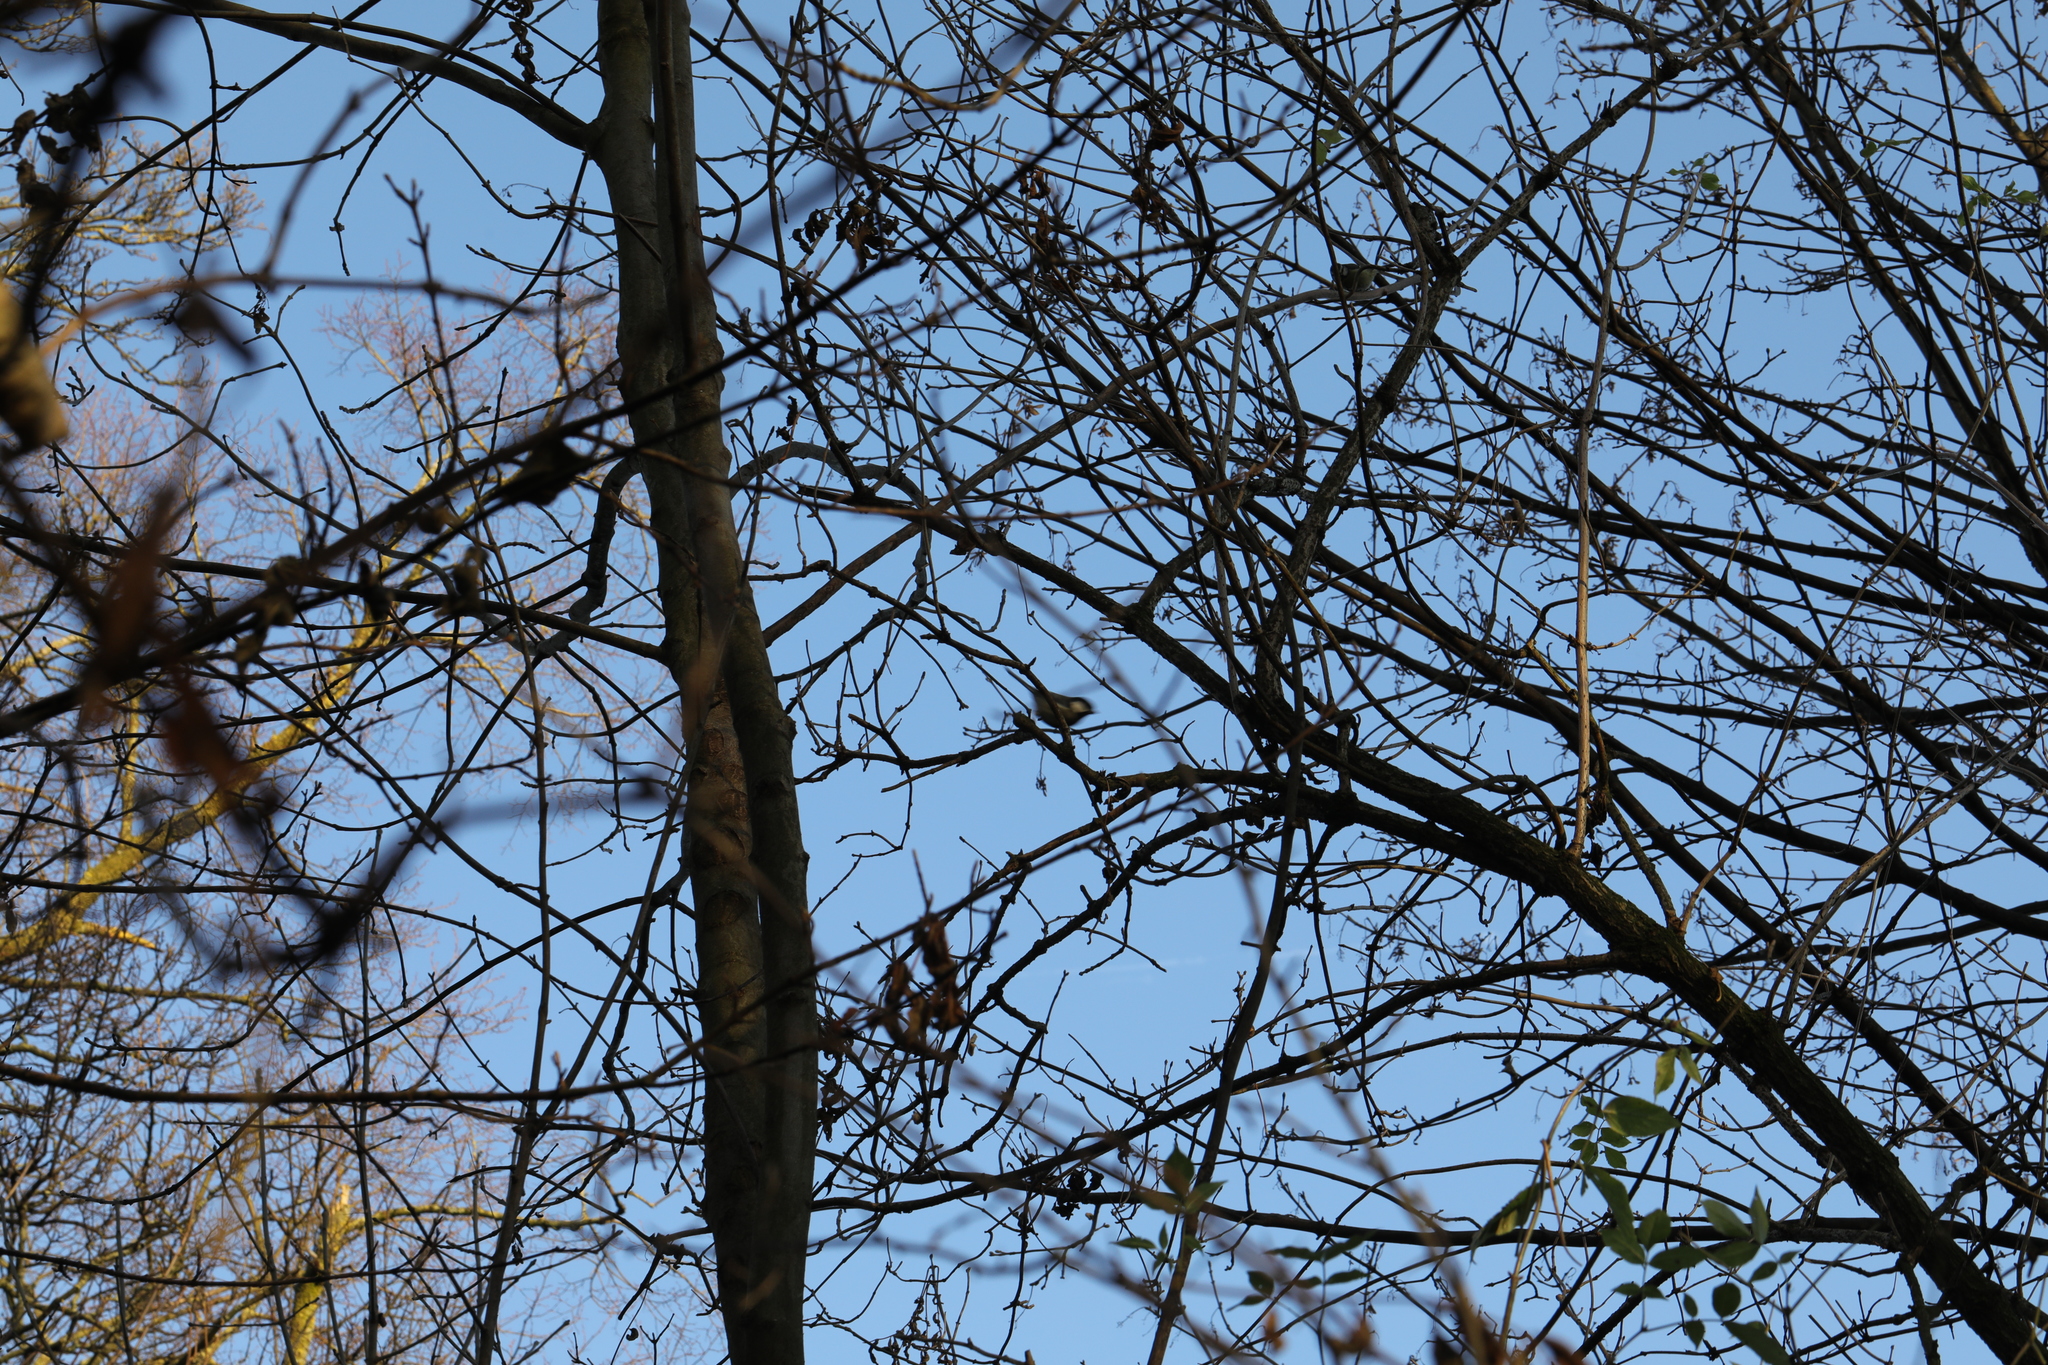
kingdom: Animalia
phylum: Chordata
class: Aves
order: Passeriformes
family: Paridae
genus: Parus
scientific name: Parus major
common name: Great tit
